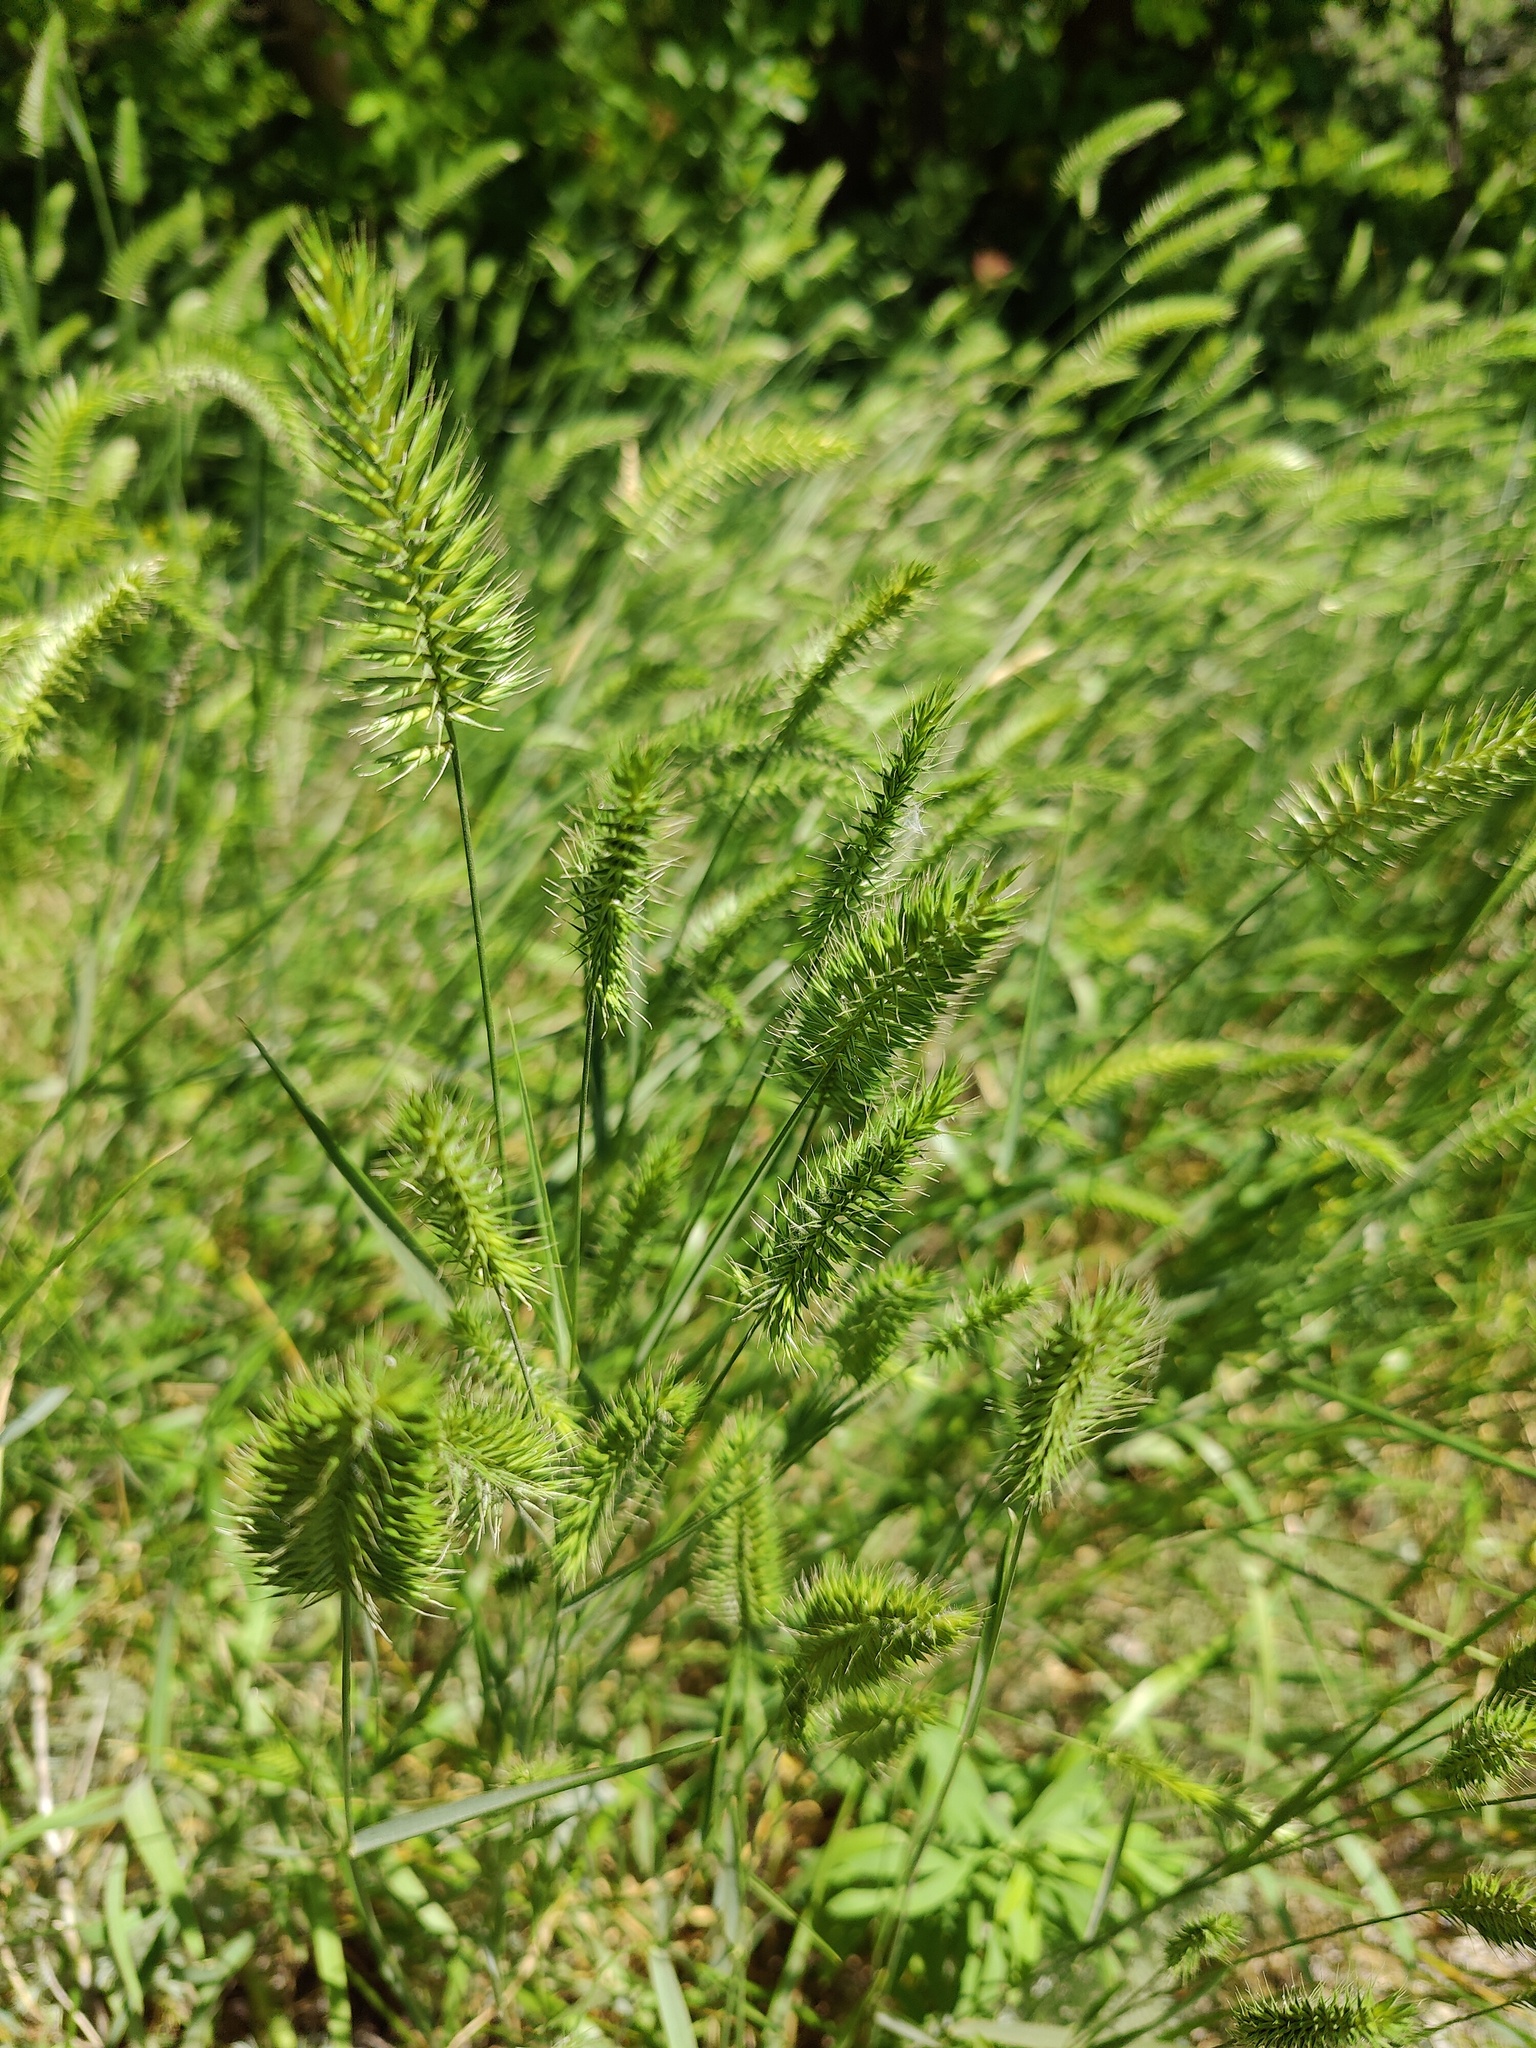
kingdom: Plantae
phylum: Tracheophyta
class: Liliopsida
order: Poales
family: Poaceae
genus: Agropyron
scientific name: Agropyron cristatum
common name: Crested wheatgrass
